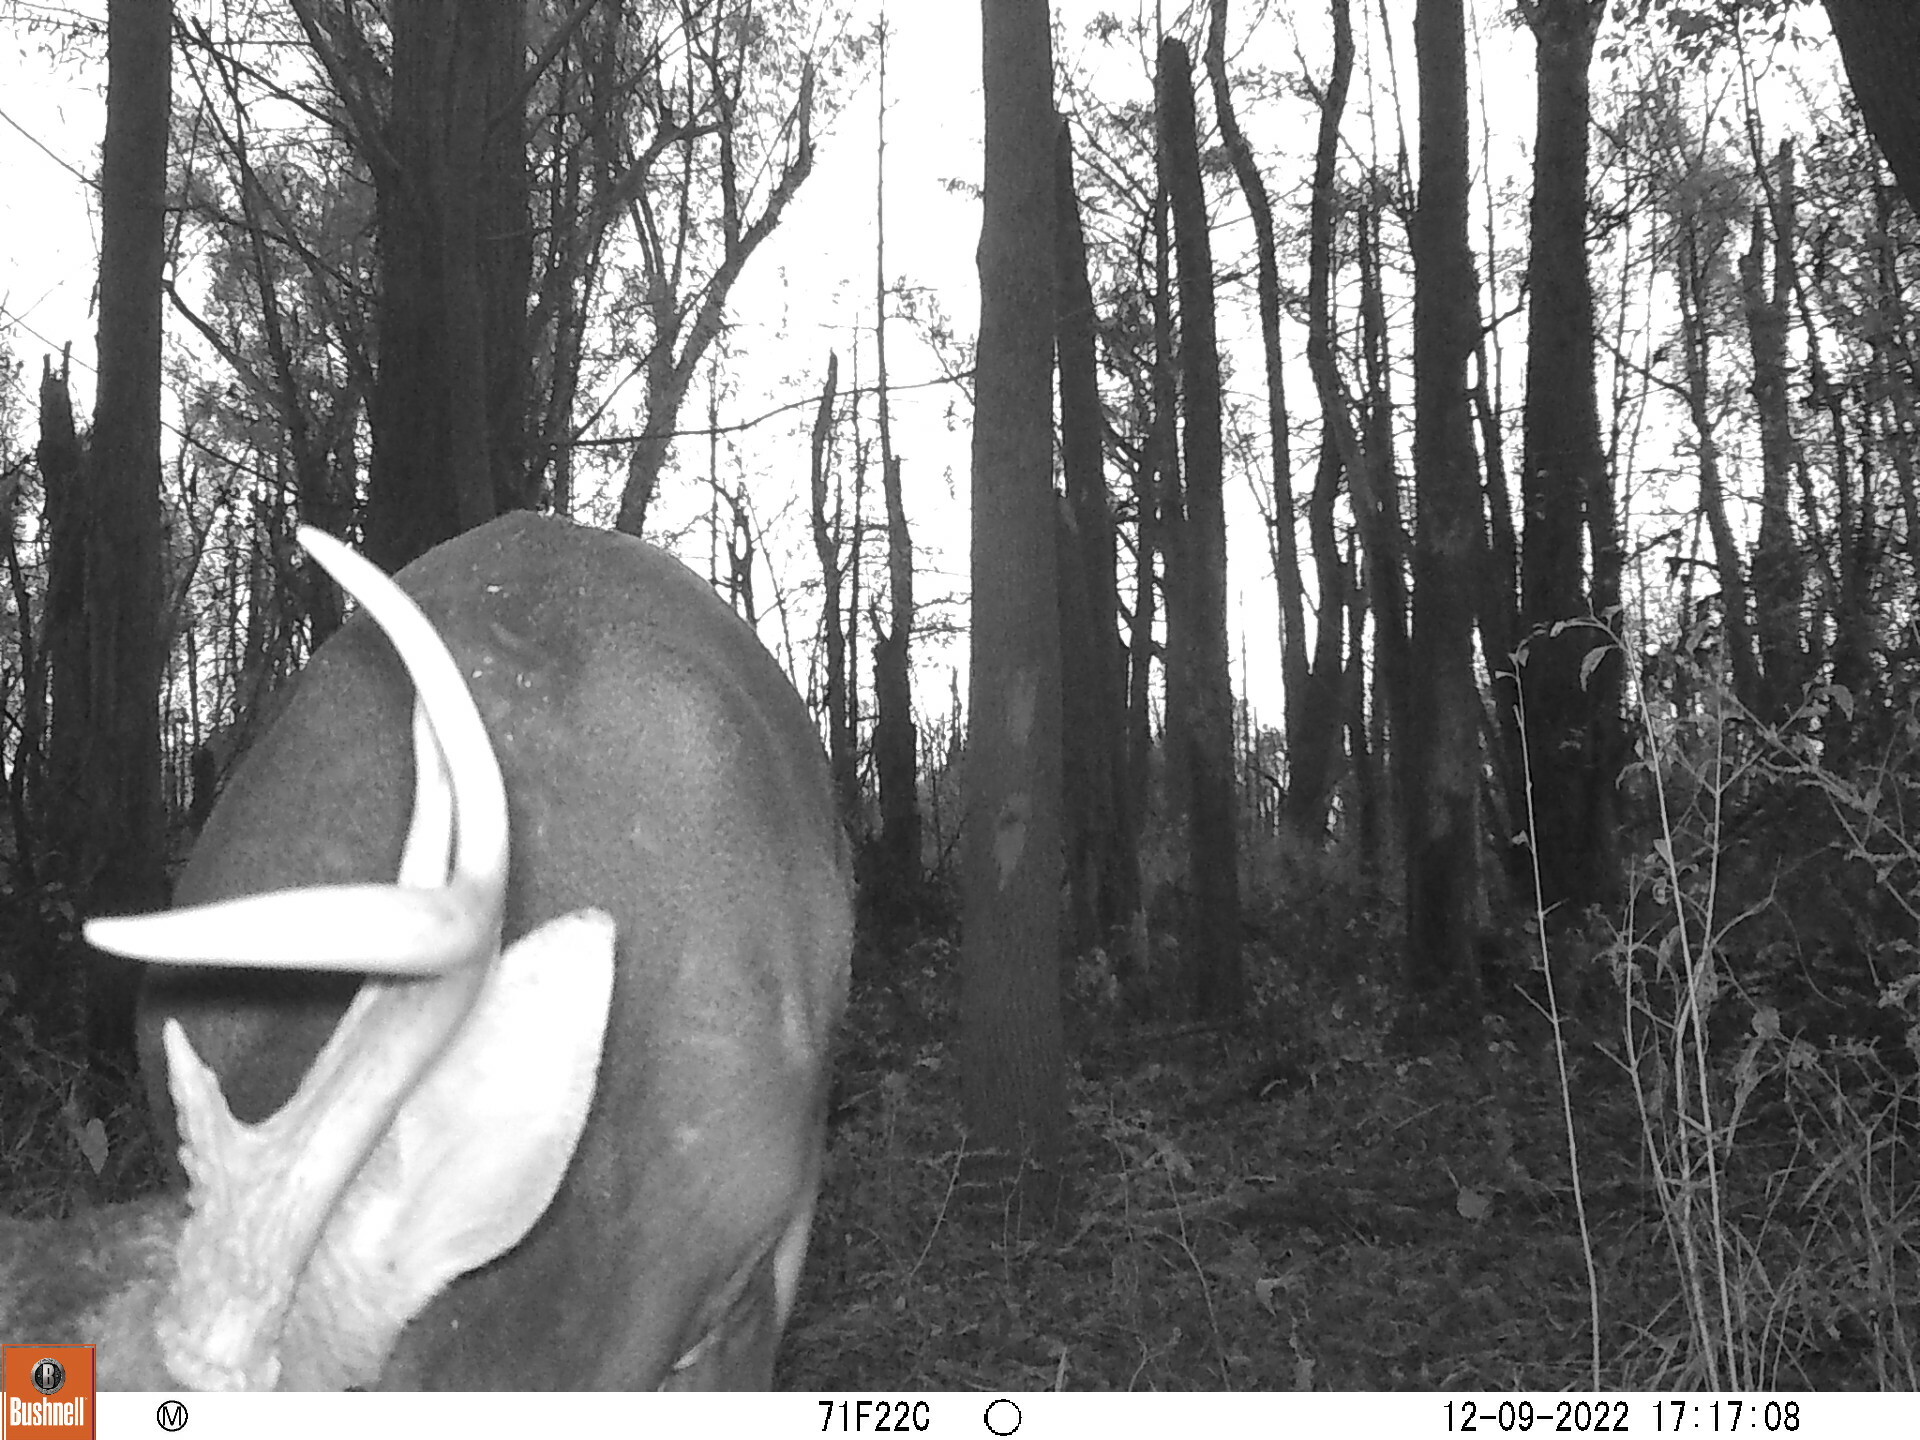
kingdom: Animalia
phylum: Chordata
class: Mammalia
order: Artiodactyla
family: Cervidae
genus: Odocoileus
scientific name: Odocoileus virginianus
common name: White-tailed deer
